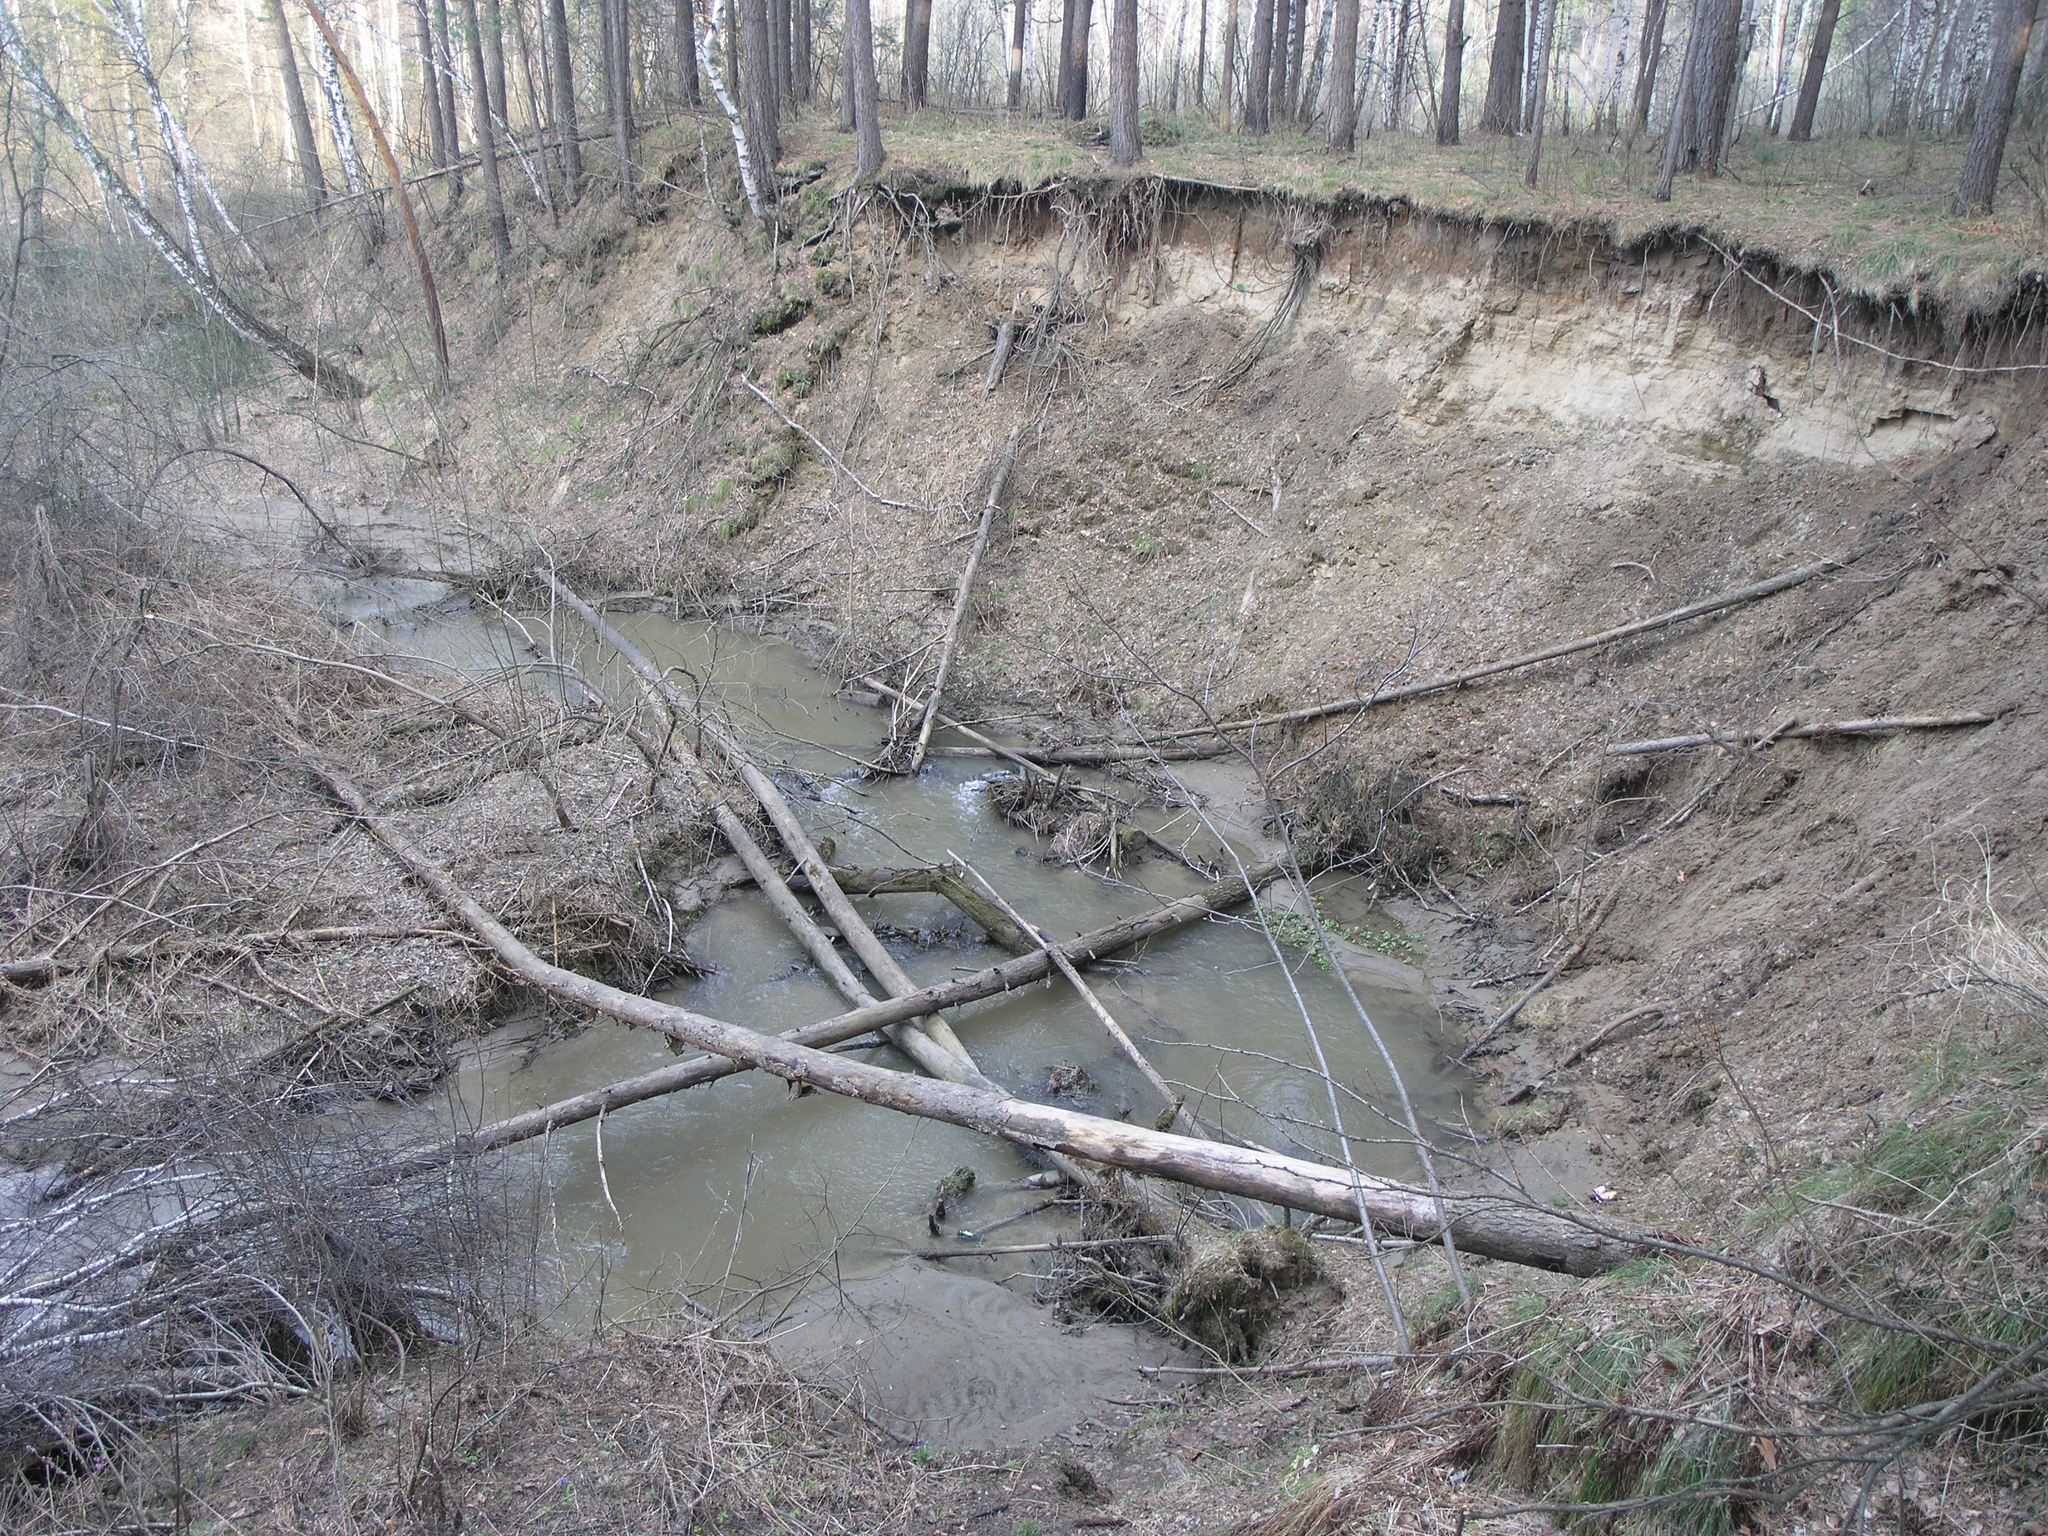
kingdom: Plantae
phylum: Tracheophyta
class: Pinopsida
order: Pinales
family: Pinaceae
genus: Pinus
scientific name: Pinus sylvestris
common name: Scots pine
